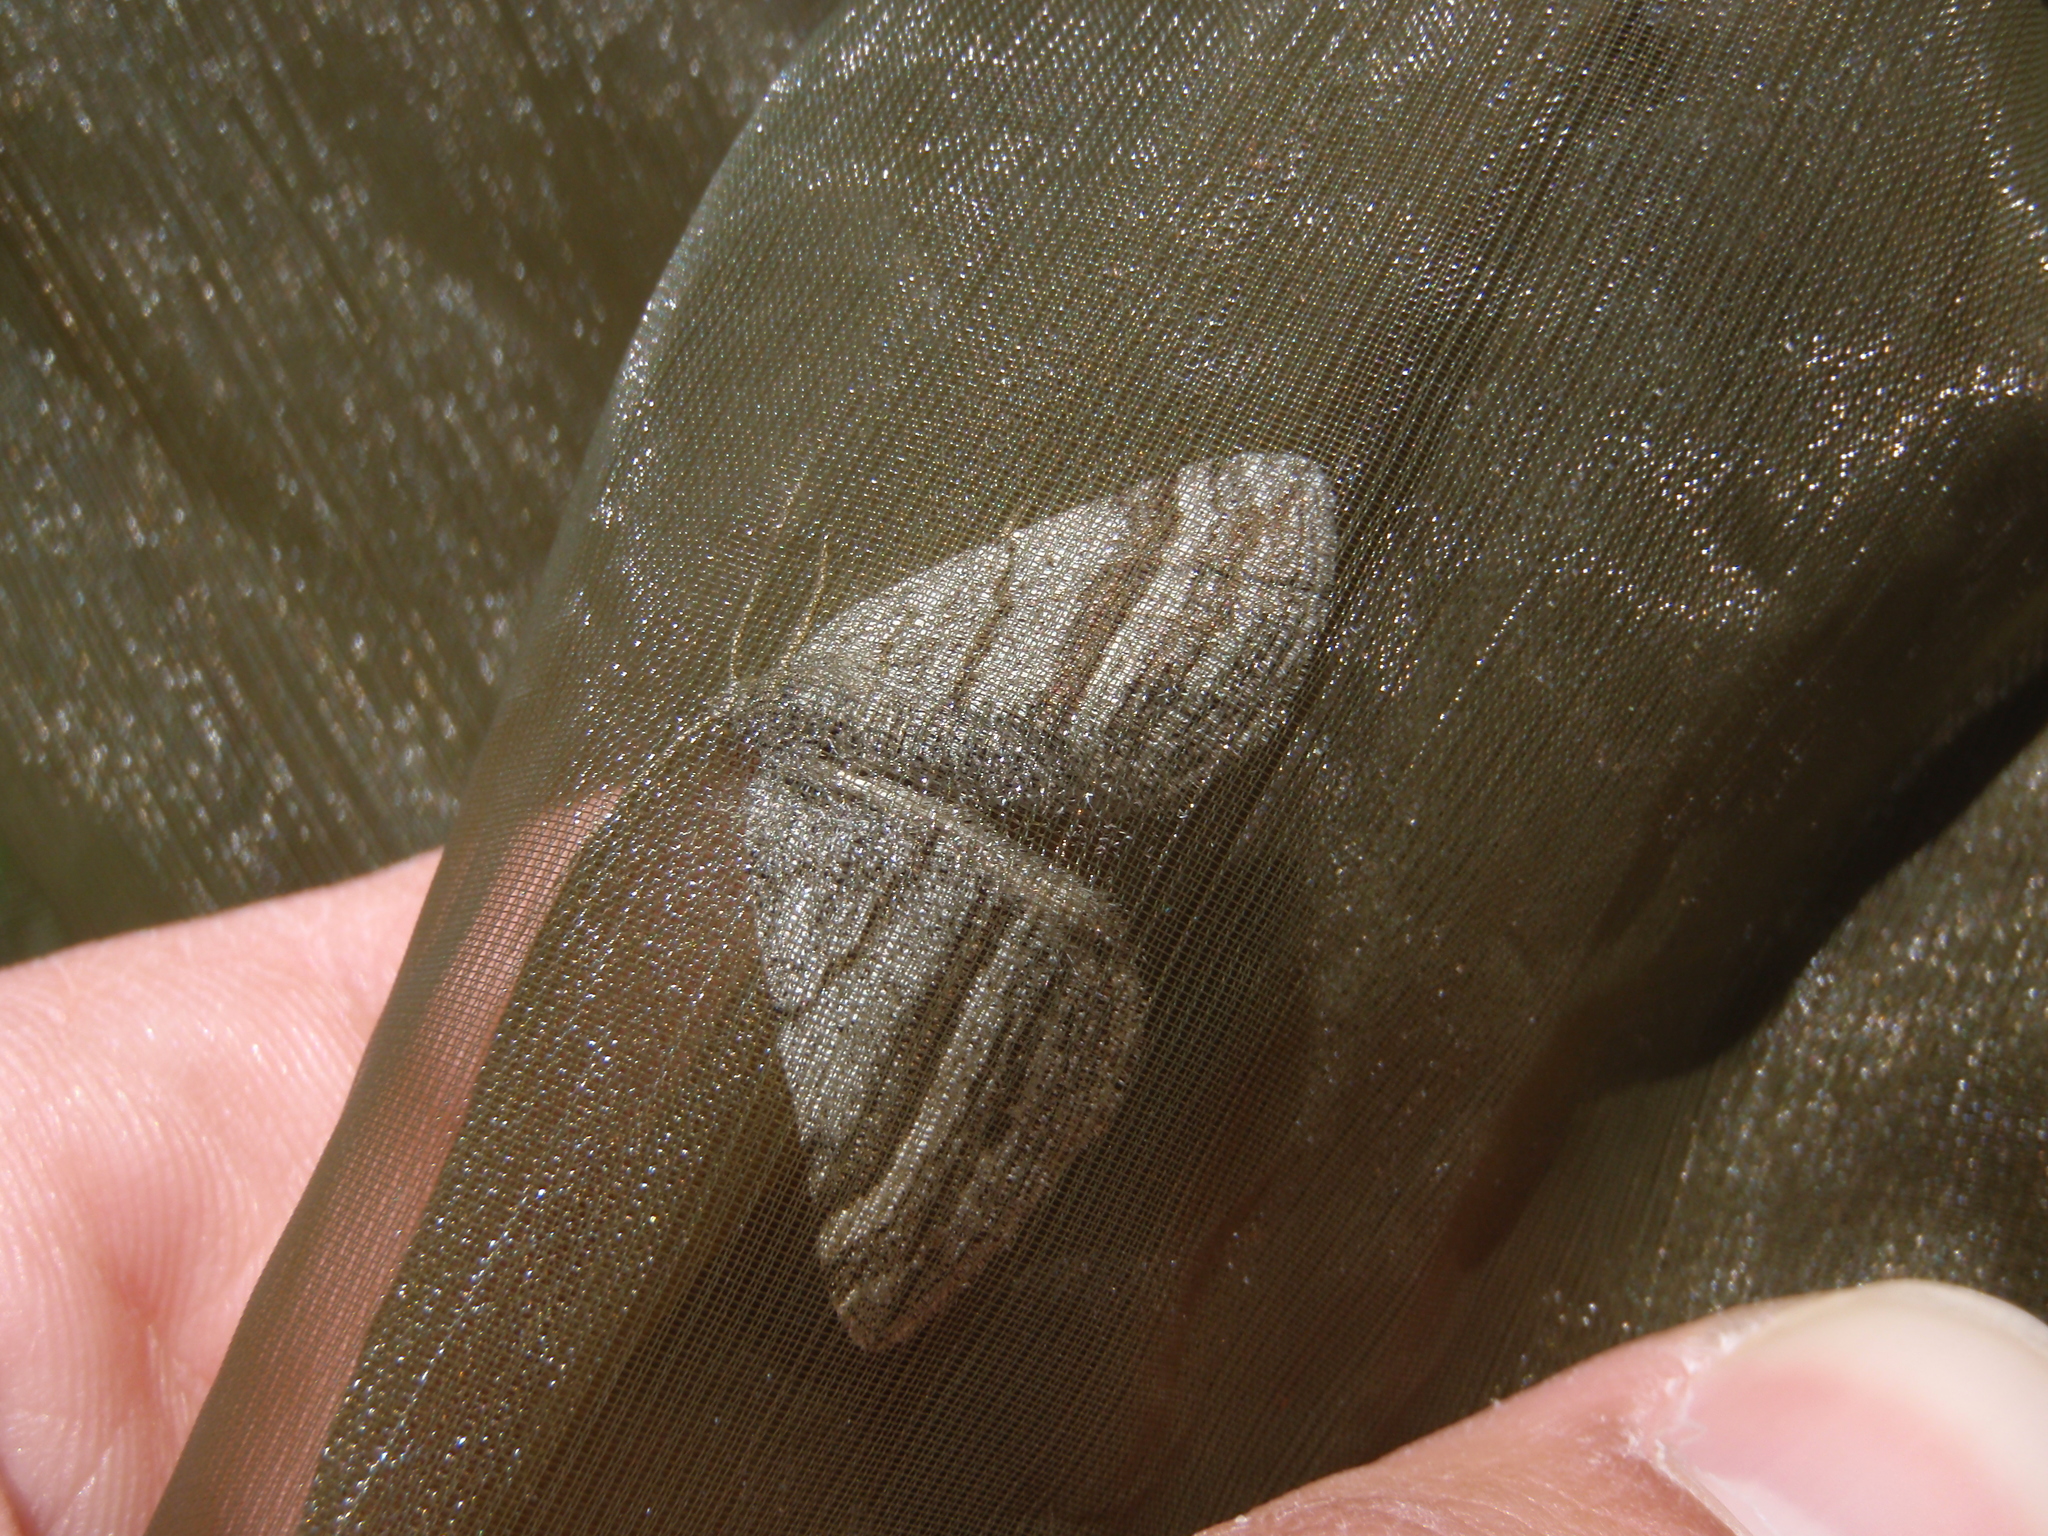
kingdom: Animalia
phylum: Arthropoda
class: Insecta
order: Lepidoptera
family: Geometridae
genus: Scotopteryx
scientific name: Scotopteryx coarctaria
